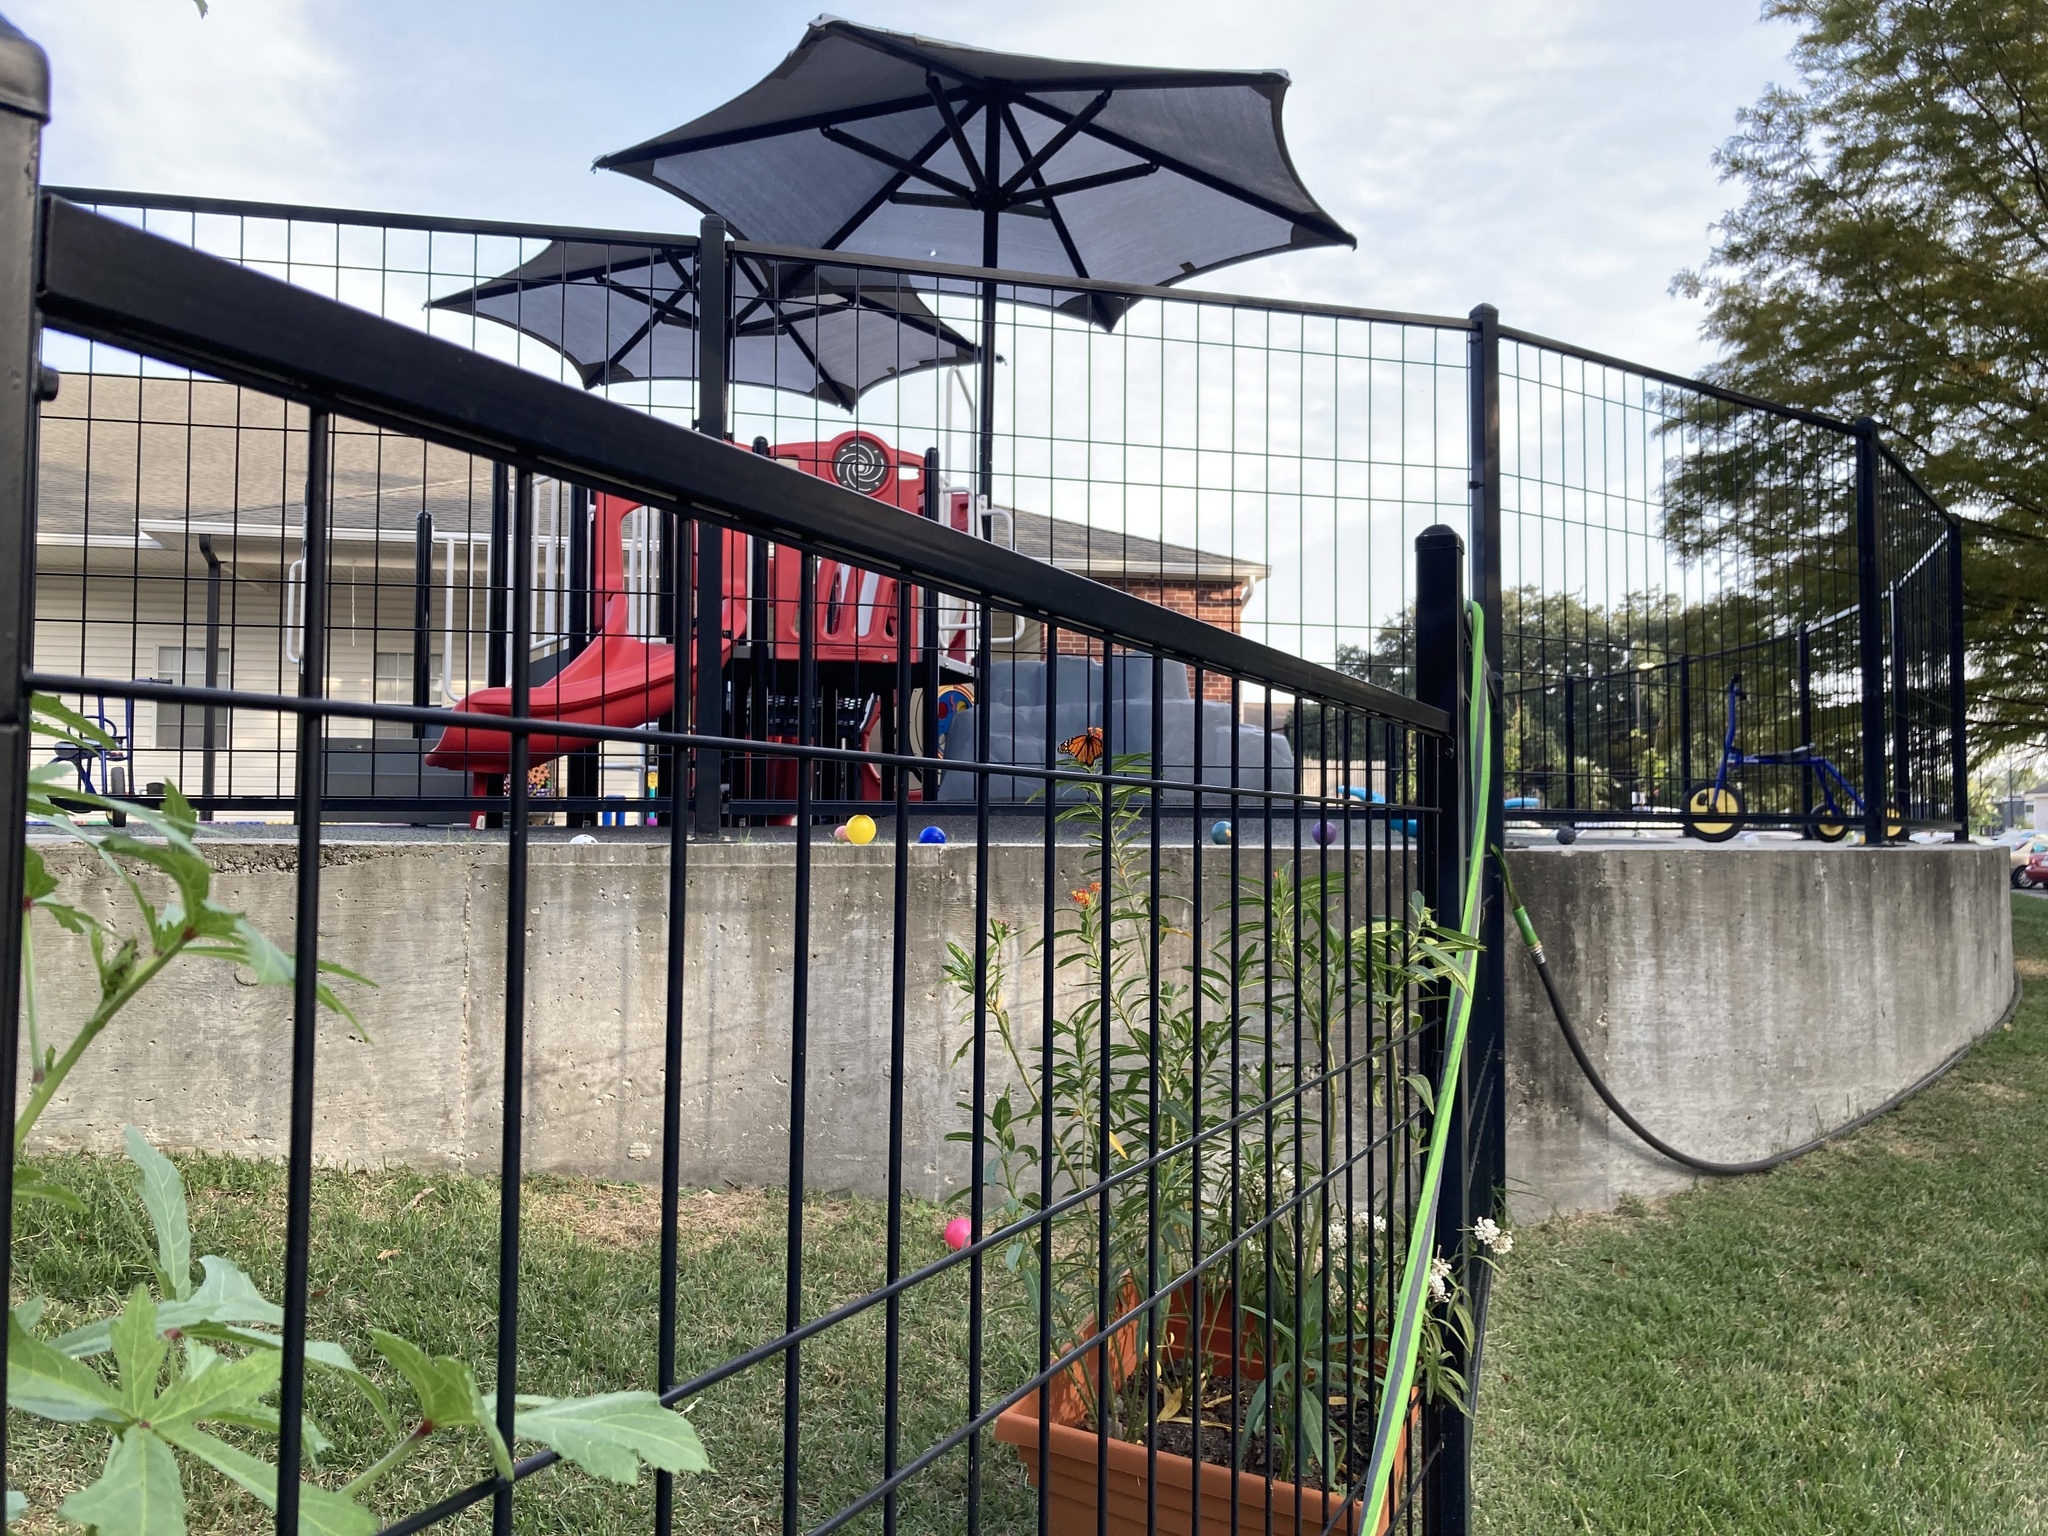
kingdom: Animalia
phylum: Arthropoda
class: Insecta
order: Lepidoptera
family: Nymphalidae
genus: Danaus
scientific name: Danaus plexippus
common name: Monarch
